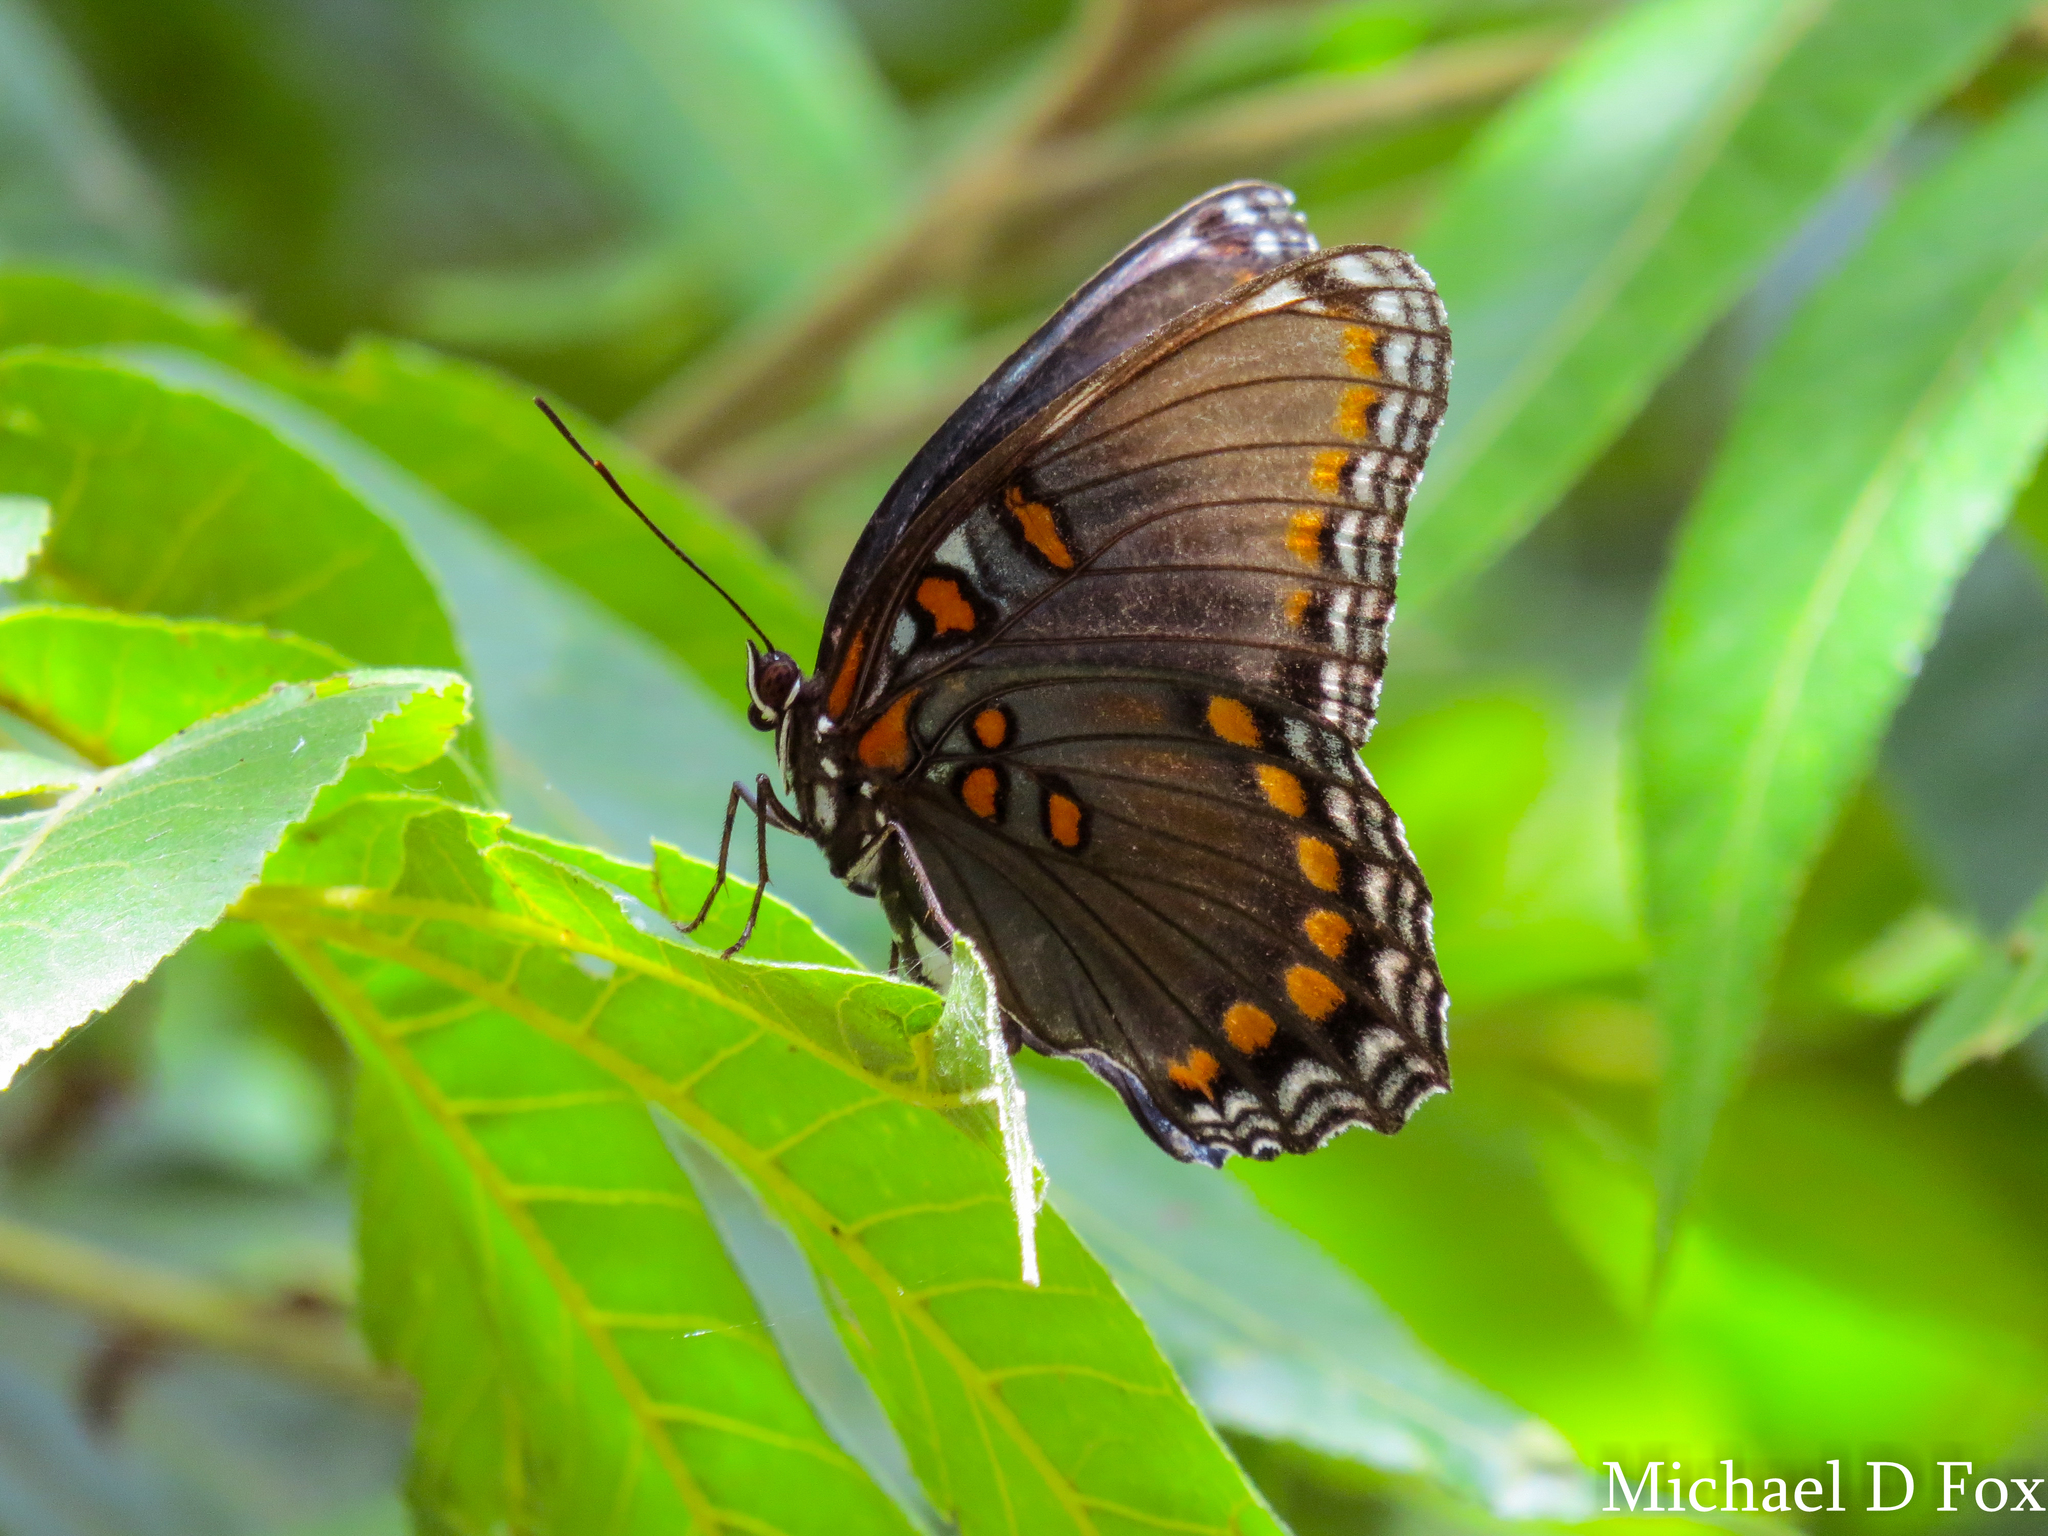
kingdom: Animalia
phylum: Arthropoda
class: Insecta
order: Lepidoptera
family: Nymphalidae
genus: Limenitis
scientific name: Limenitis astyanax
